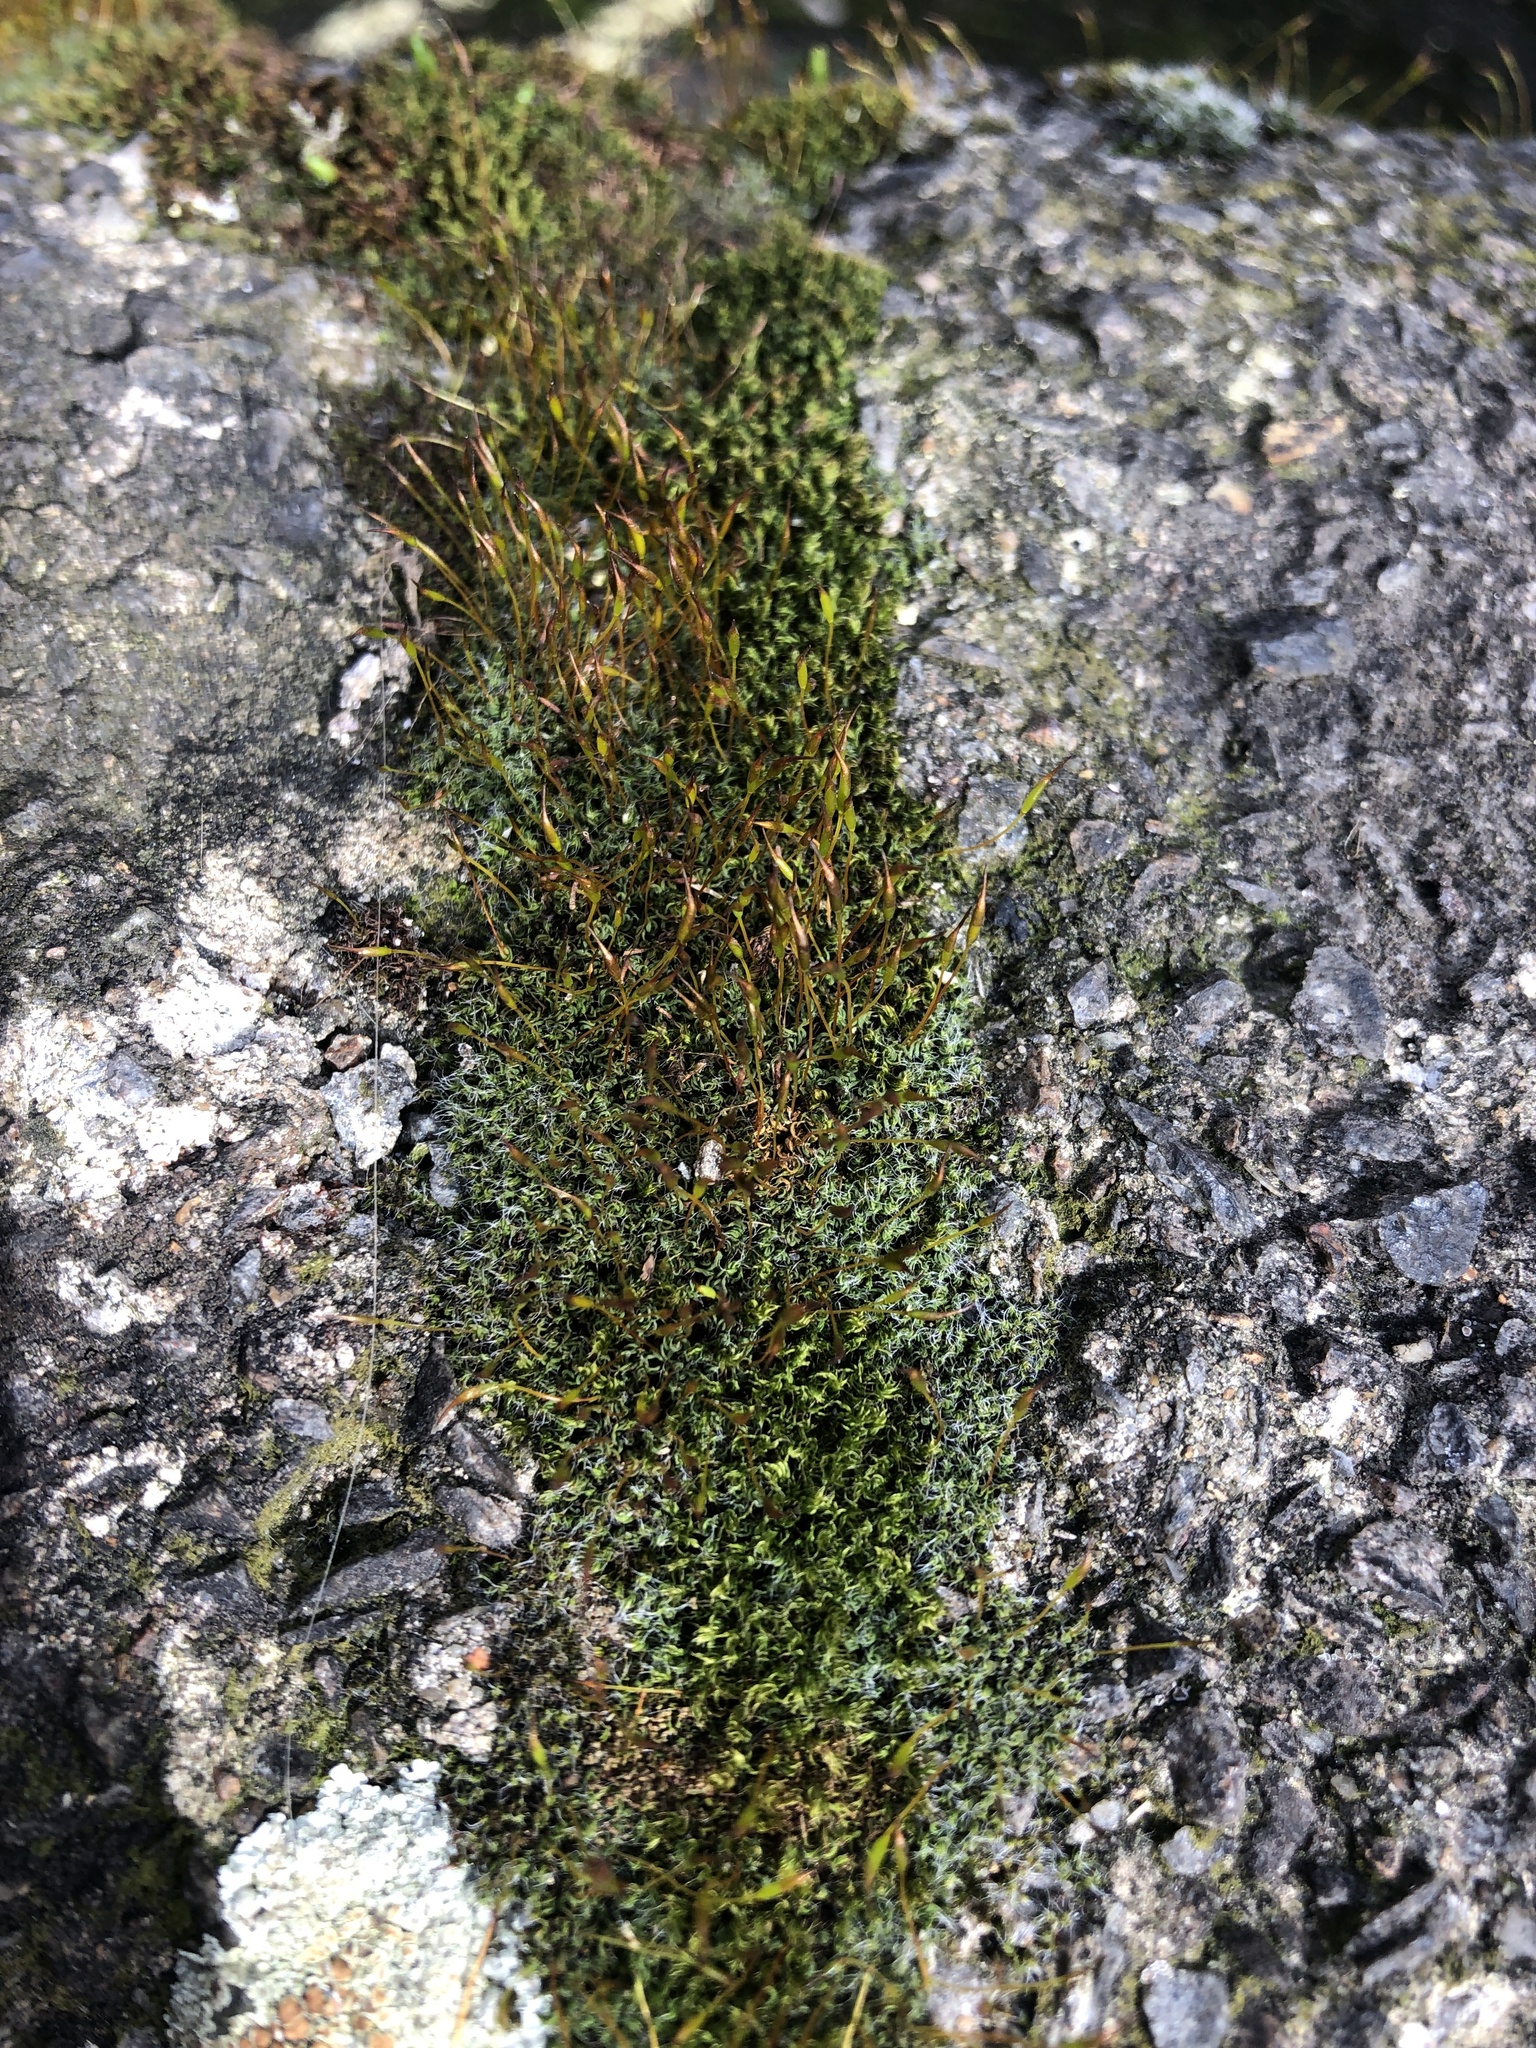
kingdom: Plantae
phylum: Bryophyta
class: Bryopsida
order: Pottiales
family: Pottiaceae
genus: Tortula
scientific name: Tortula muralis
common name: Wall screw-moss
